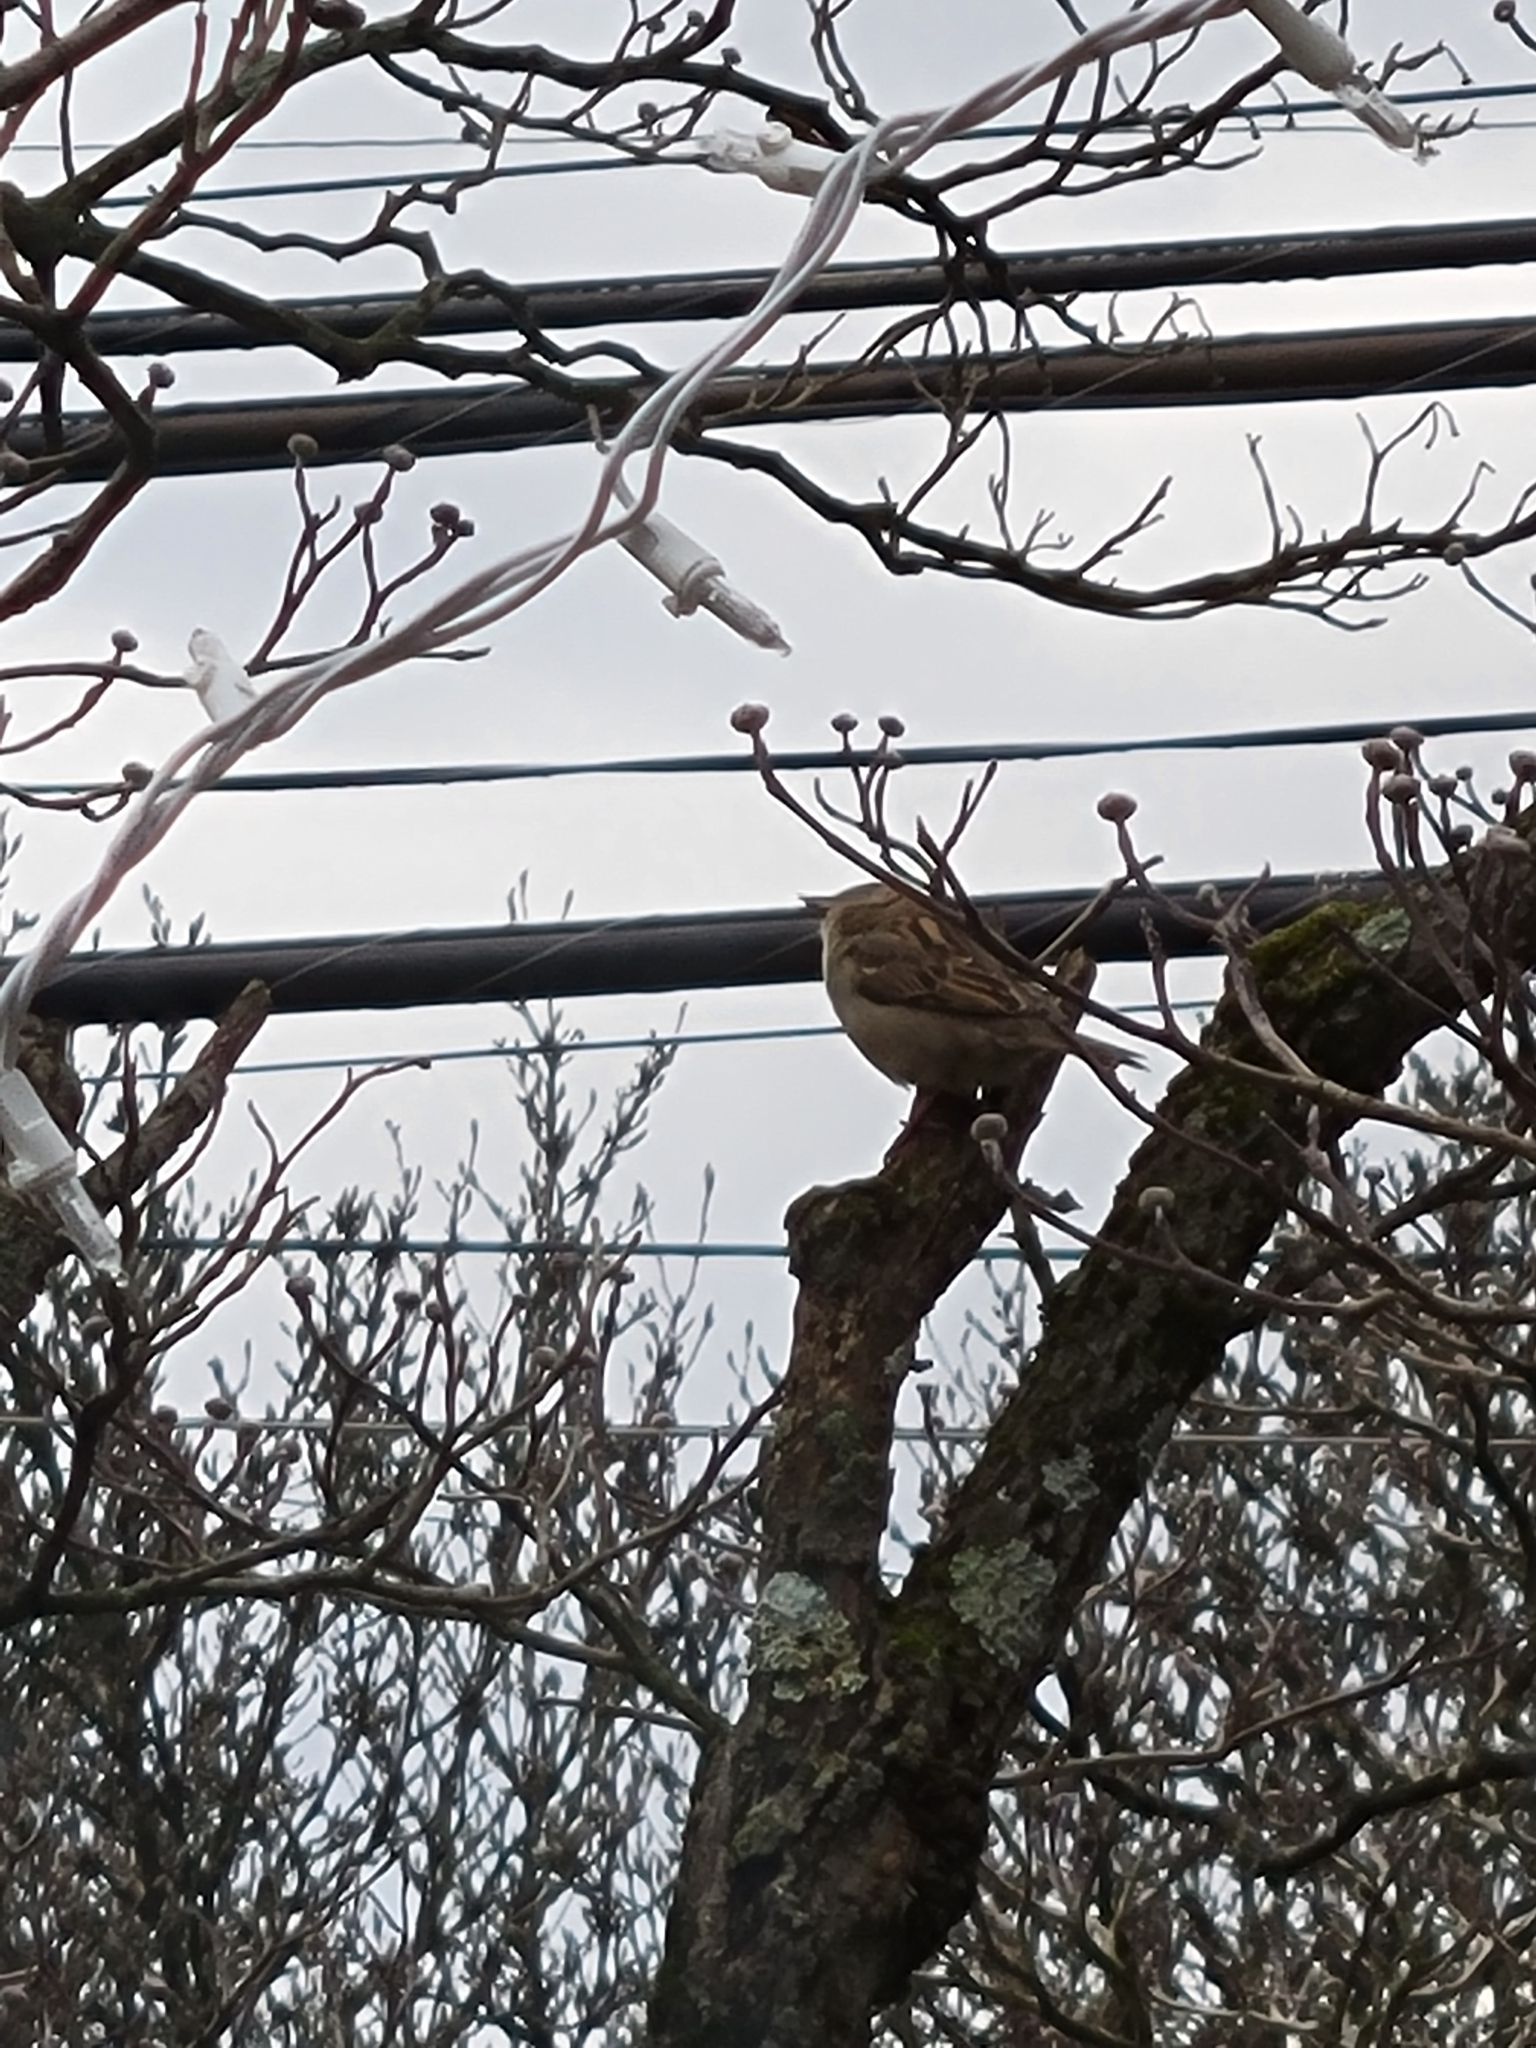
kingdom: Animalia
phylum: Chordata
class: Aves
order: Passeriformes
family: Passeridae
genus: Passer
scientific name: Passer domesticus
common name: House sparrow
